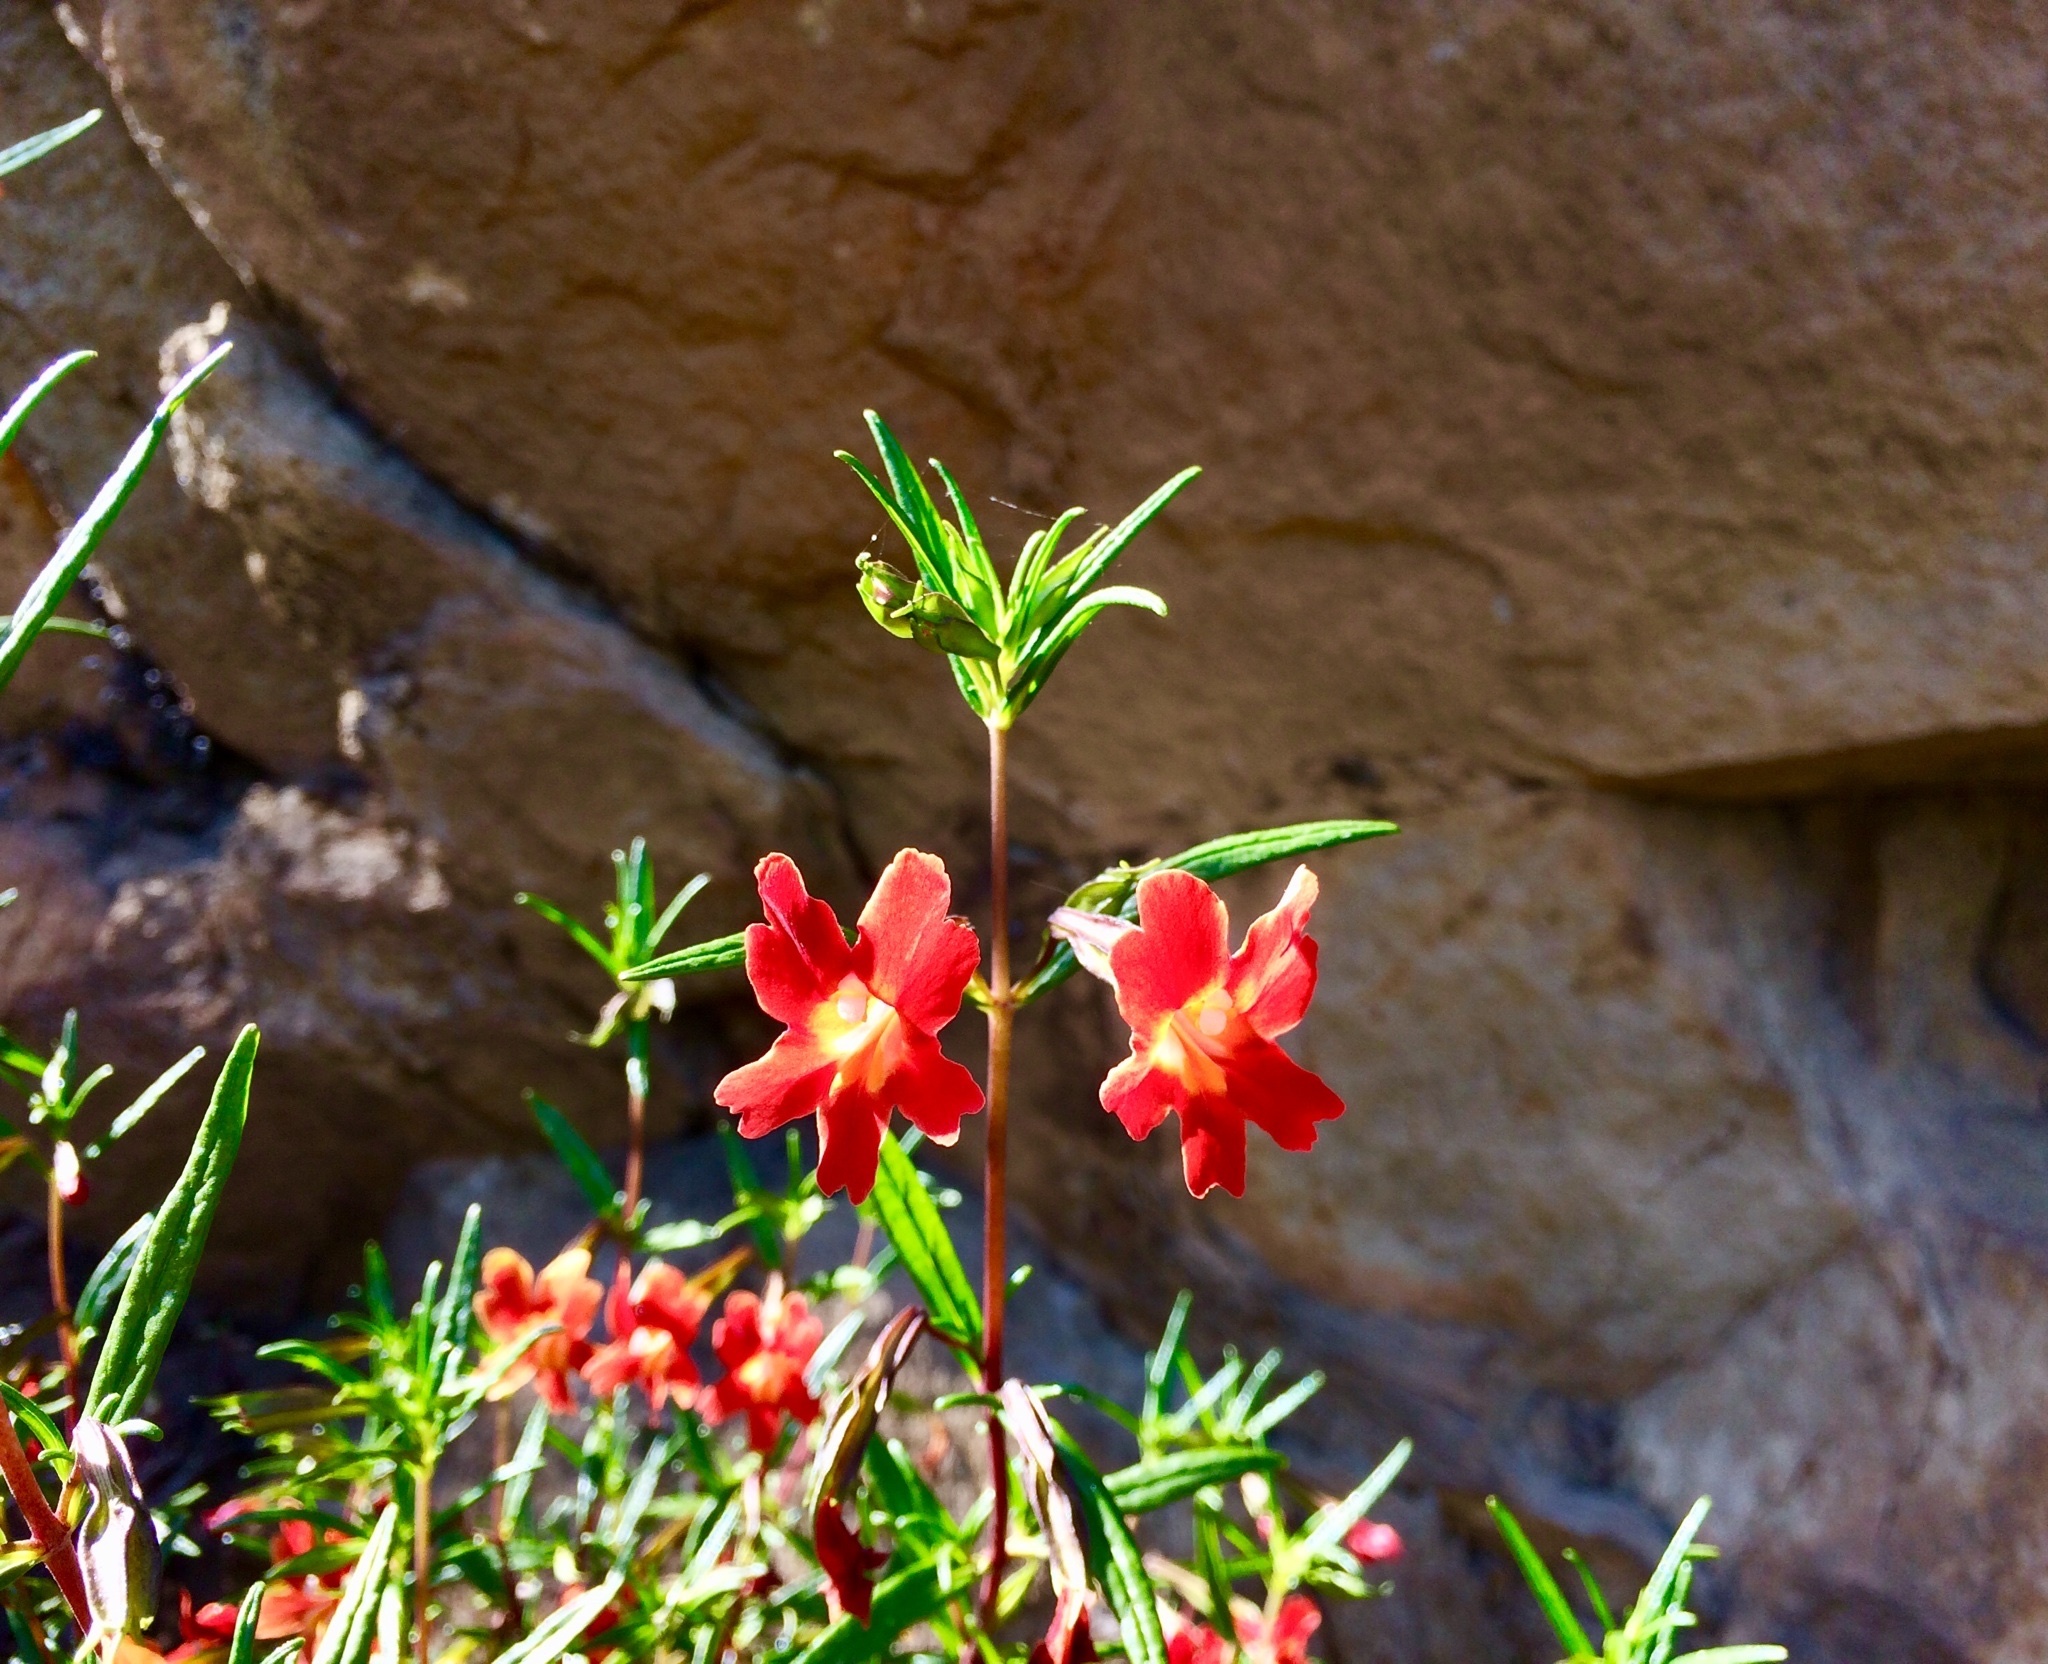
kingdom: Plantae
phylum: Tracheophyta
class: Magnoliopsida
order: Lamiales
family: Phrymaceae
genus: Diplacus
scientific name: Diplacus puniceus
